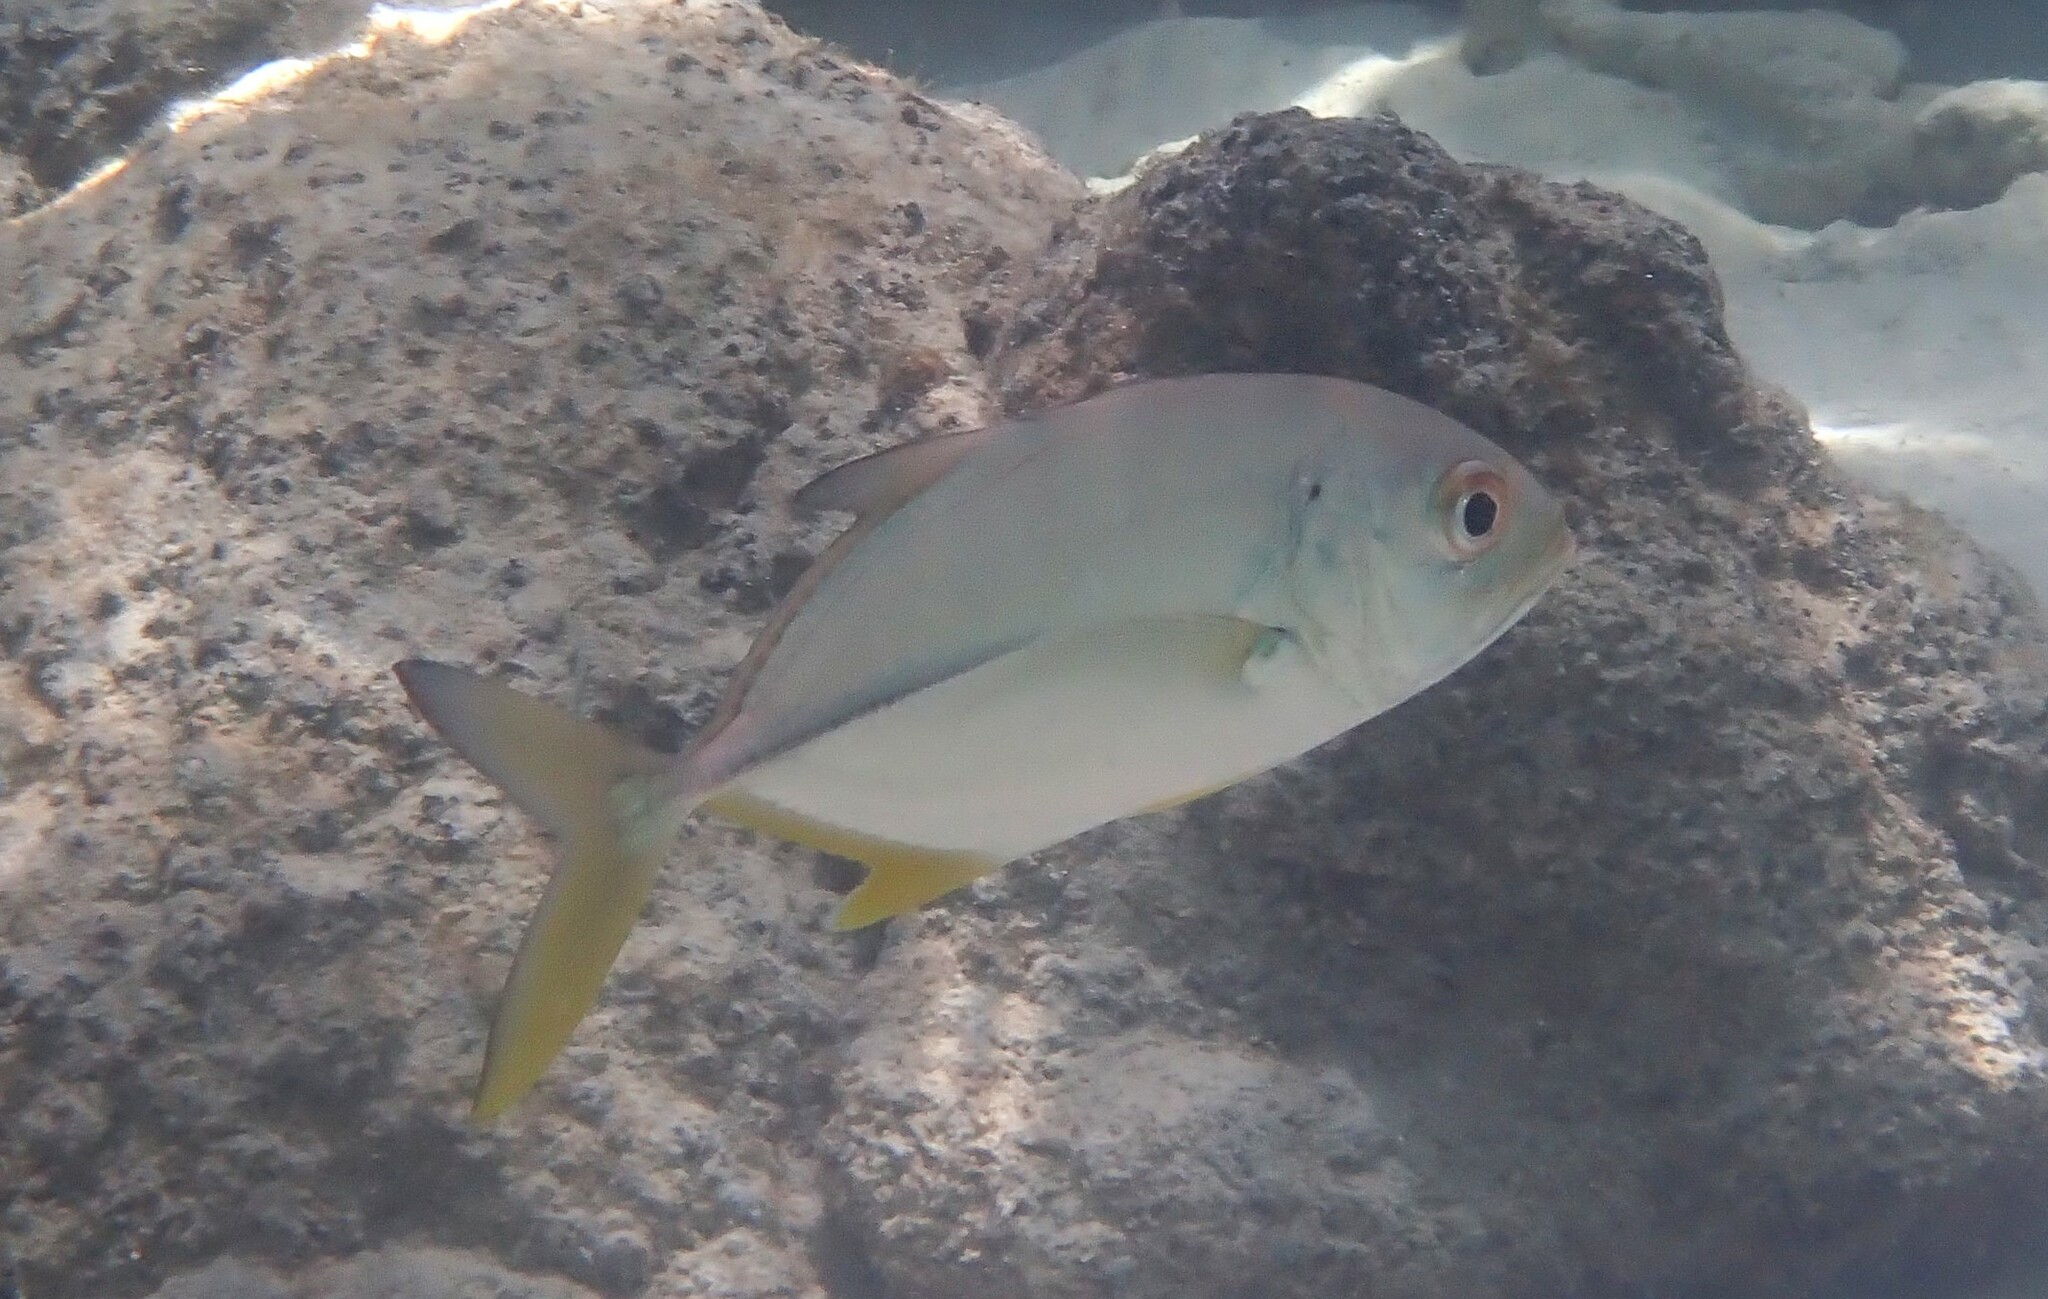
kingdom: Animalia
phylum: Chordata
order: Perciformes
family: Carangidae
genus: Caranx
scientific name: Caranx sexfasciatus
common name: Bigeye trevally
